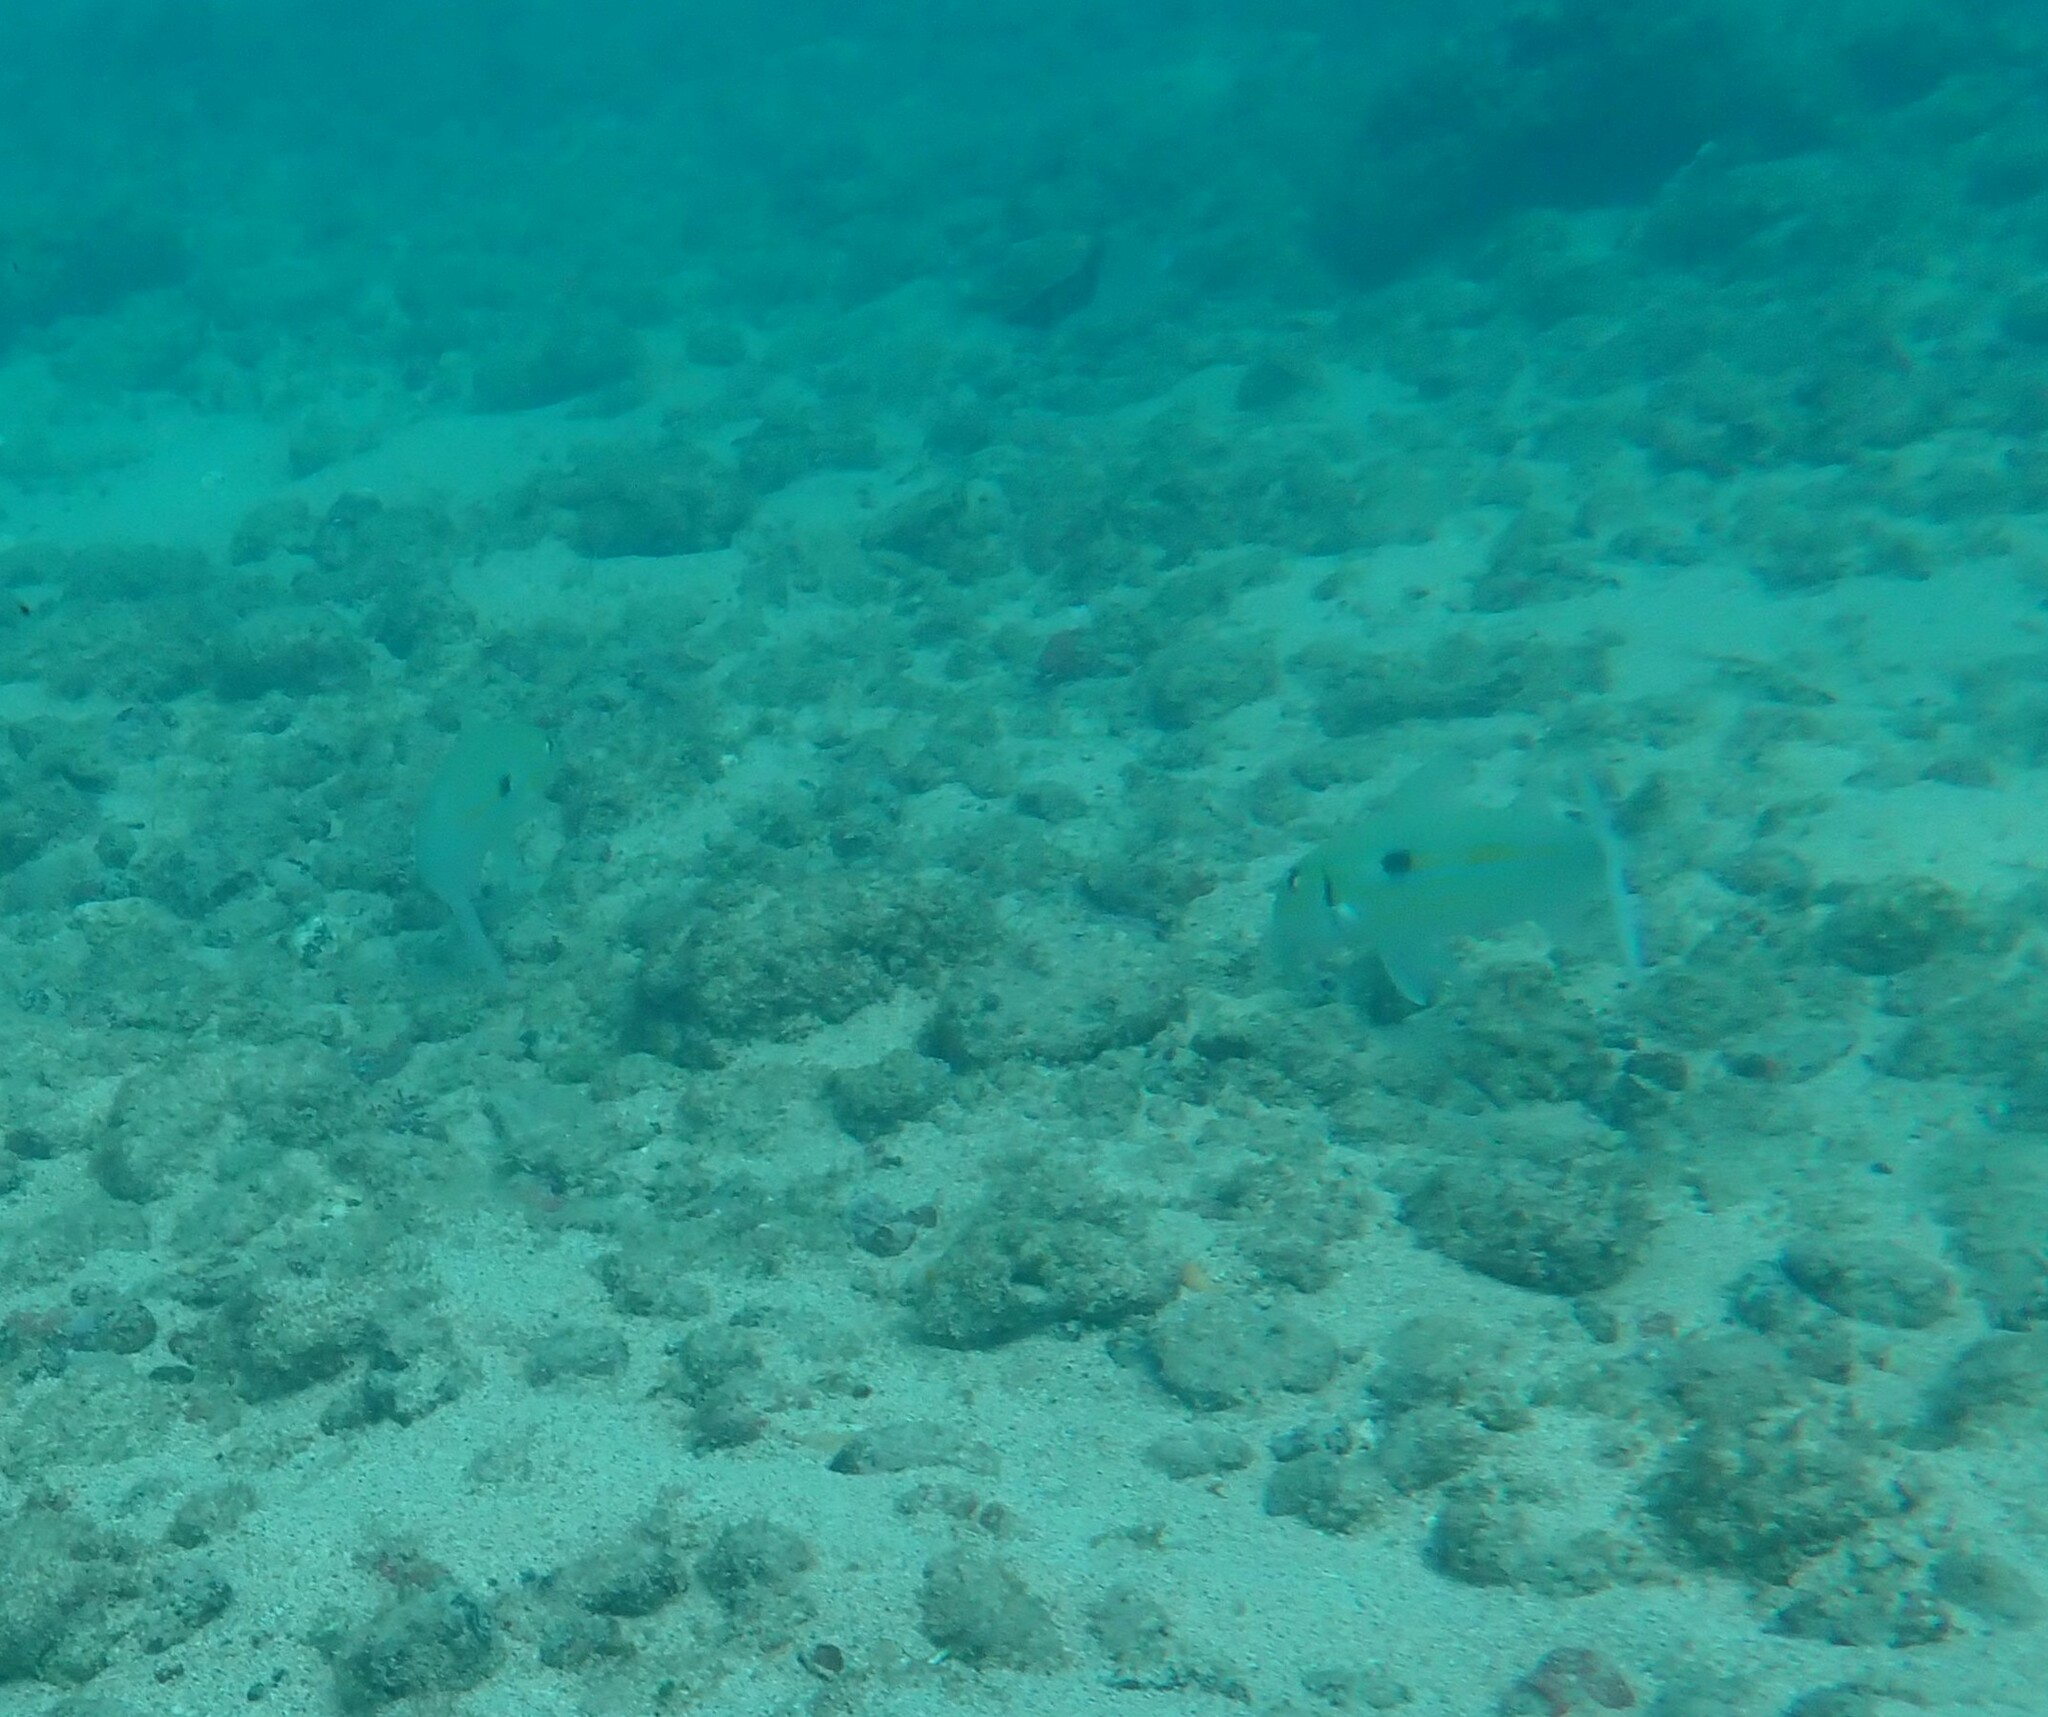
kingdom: Animalia
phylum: Chordata
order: Perciformes
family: Mullidae
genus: Mulloidichthys
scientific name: Mulloidichthys flavolineatus
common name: Yellowstripe goatfish
